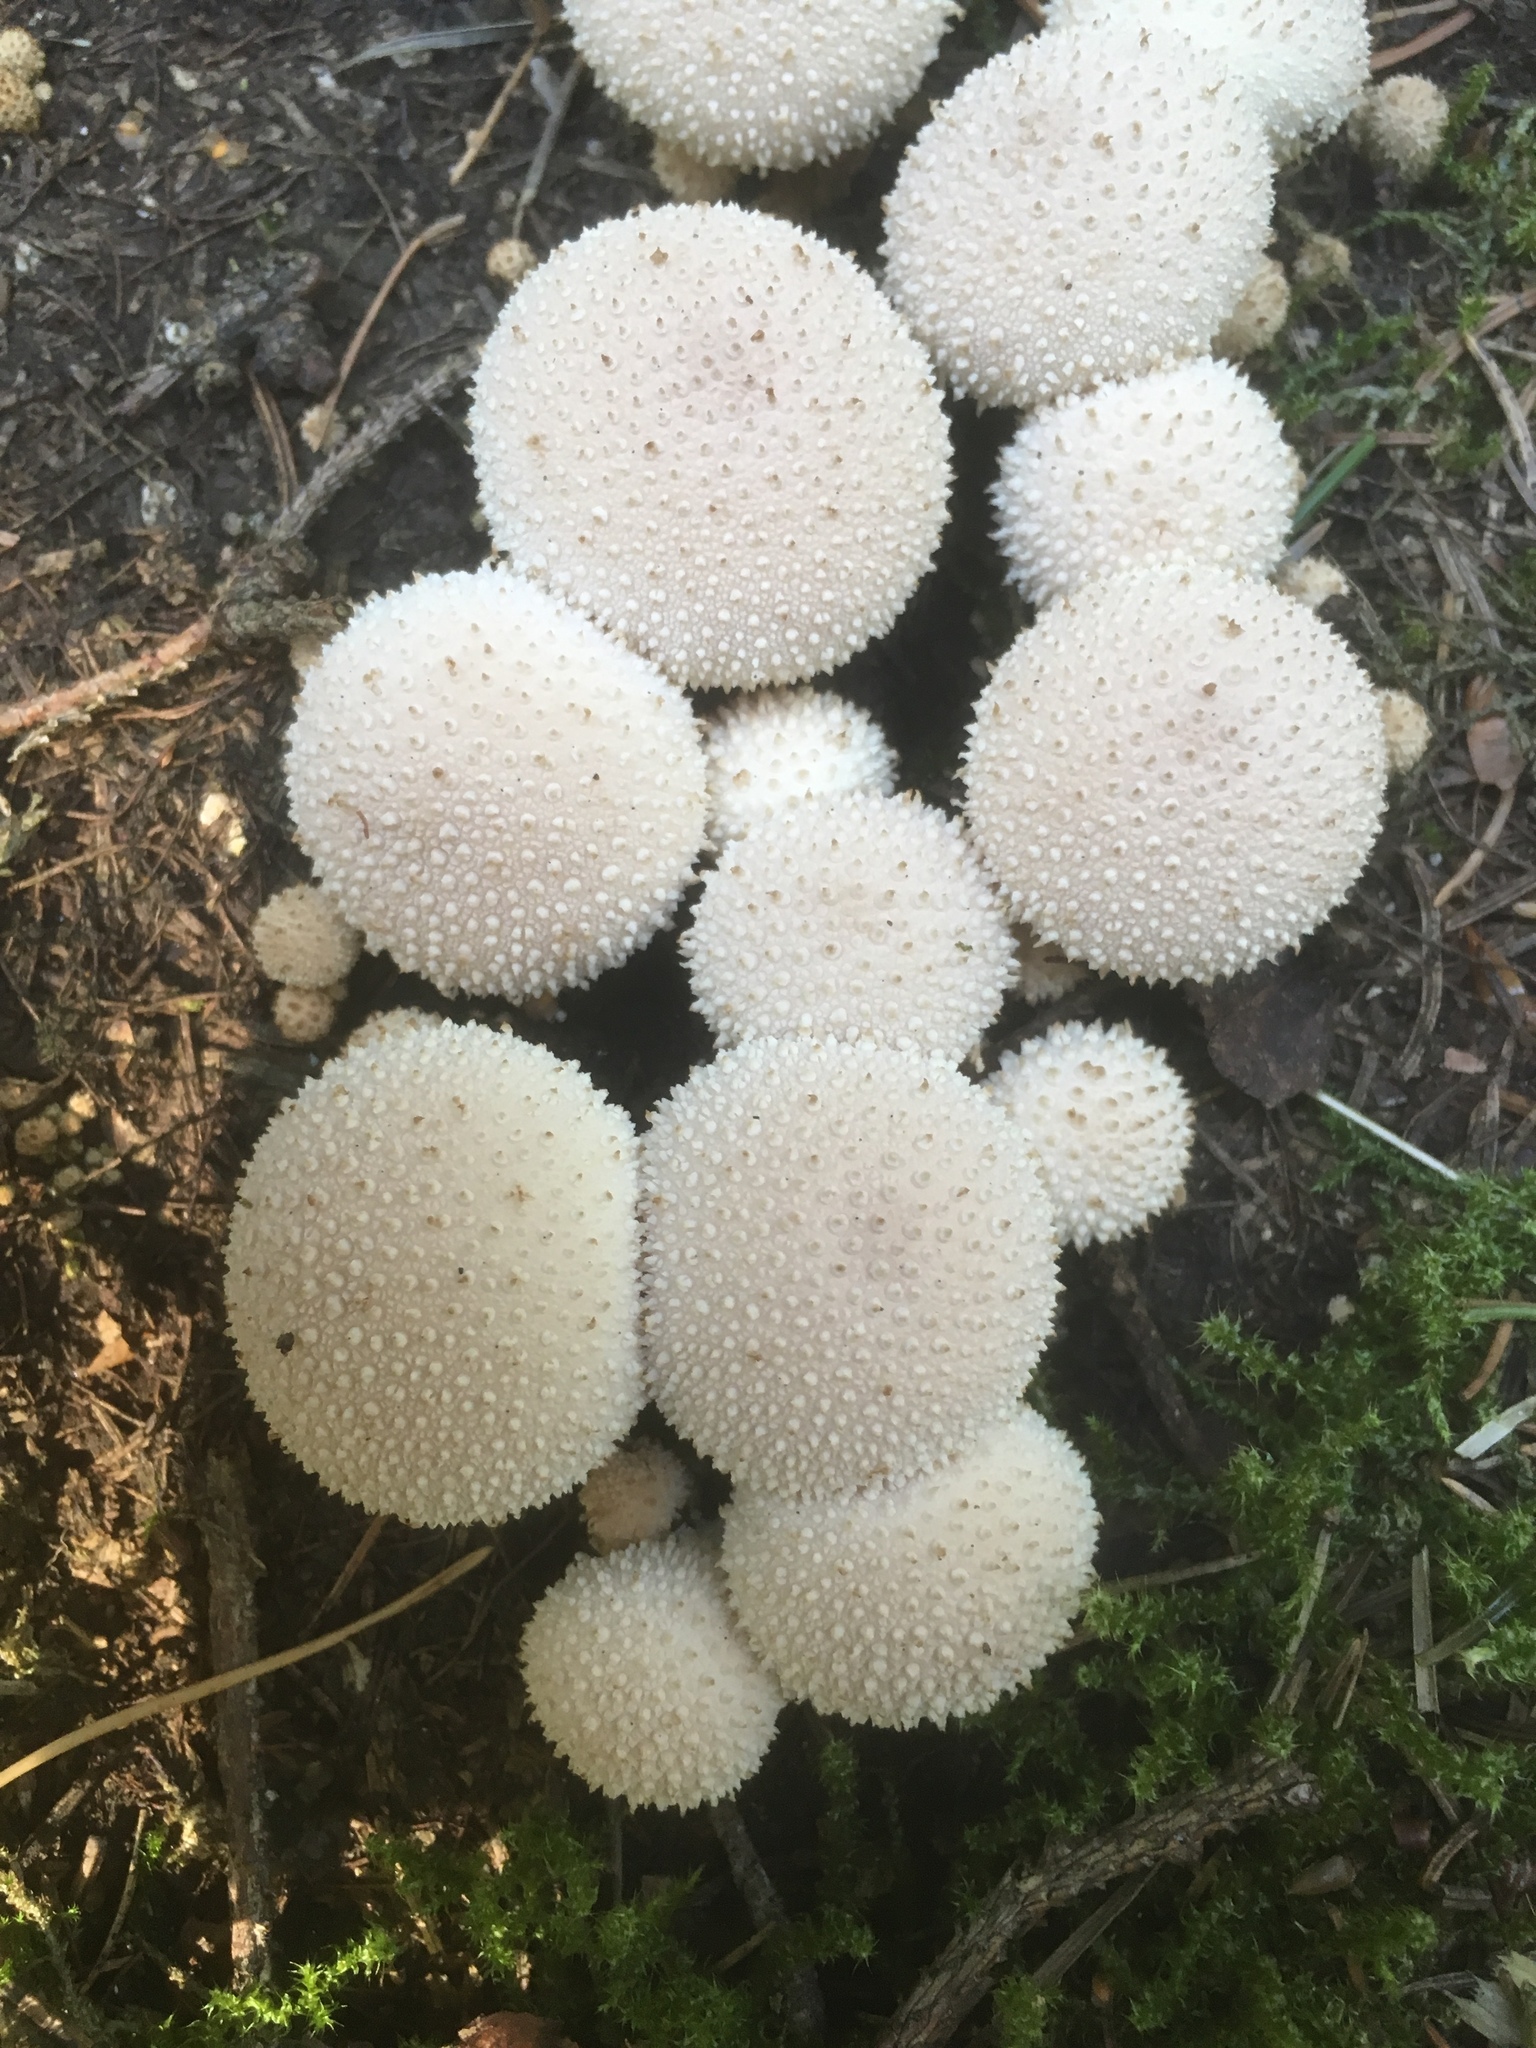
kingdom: Fungi
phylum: Basidiomycota
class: Agaricomycetes
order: Agaricales
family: Lycoperdaceae
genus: Lycoperdon
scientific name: Lycoperdon perlatum
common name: Common puffball
